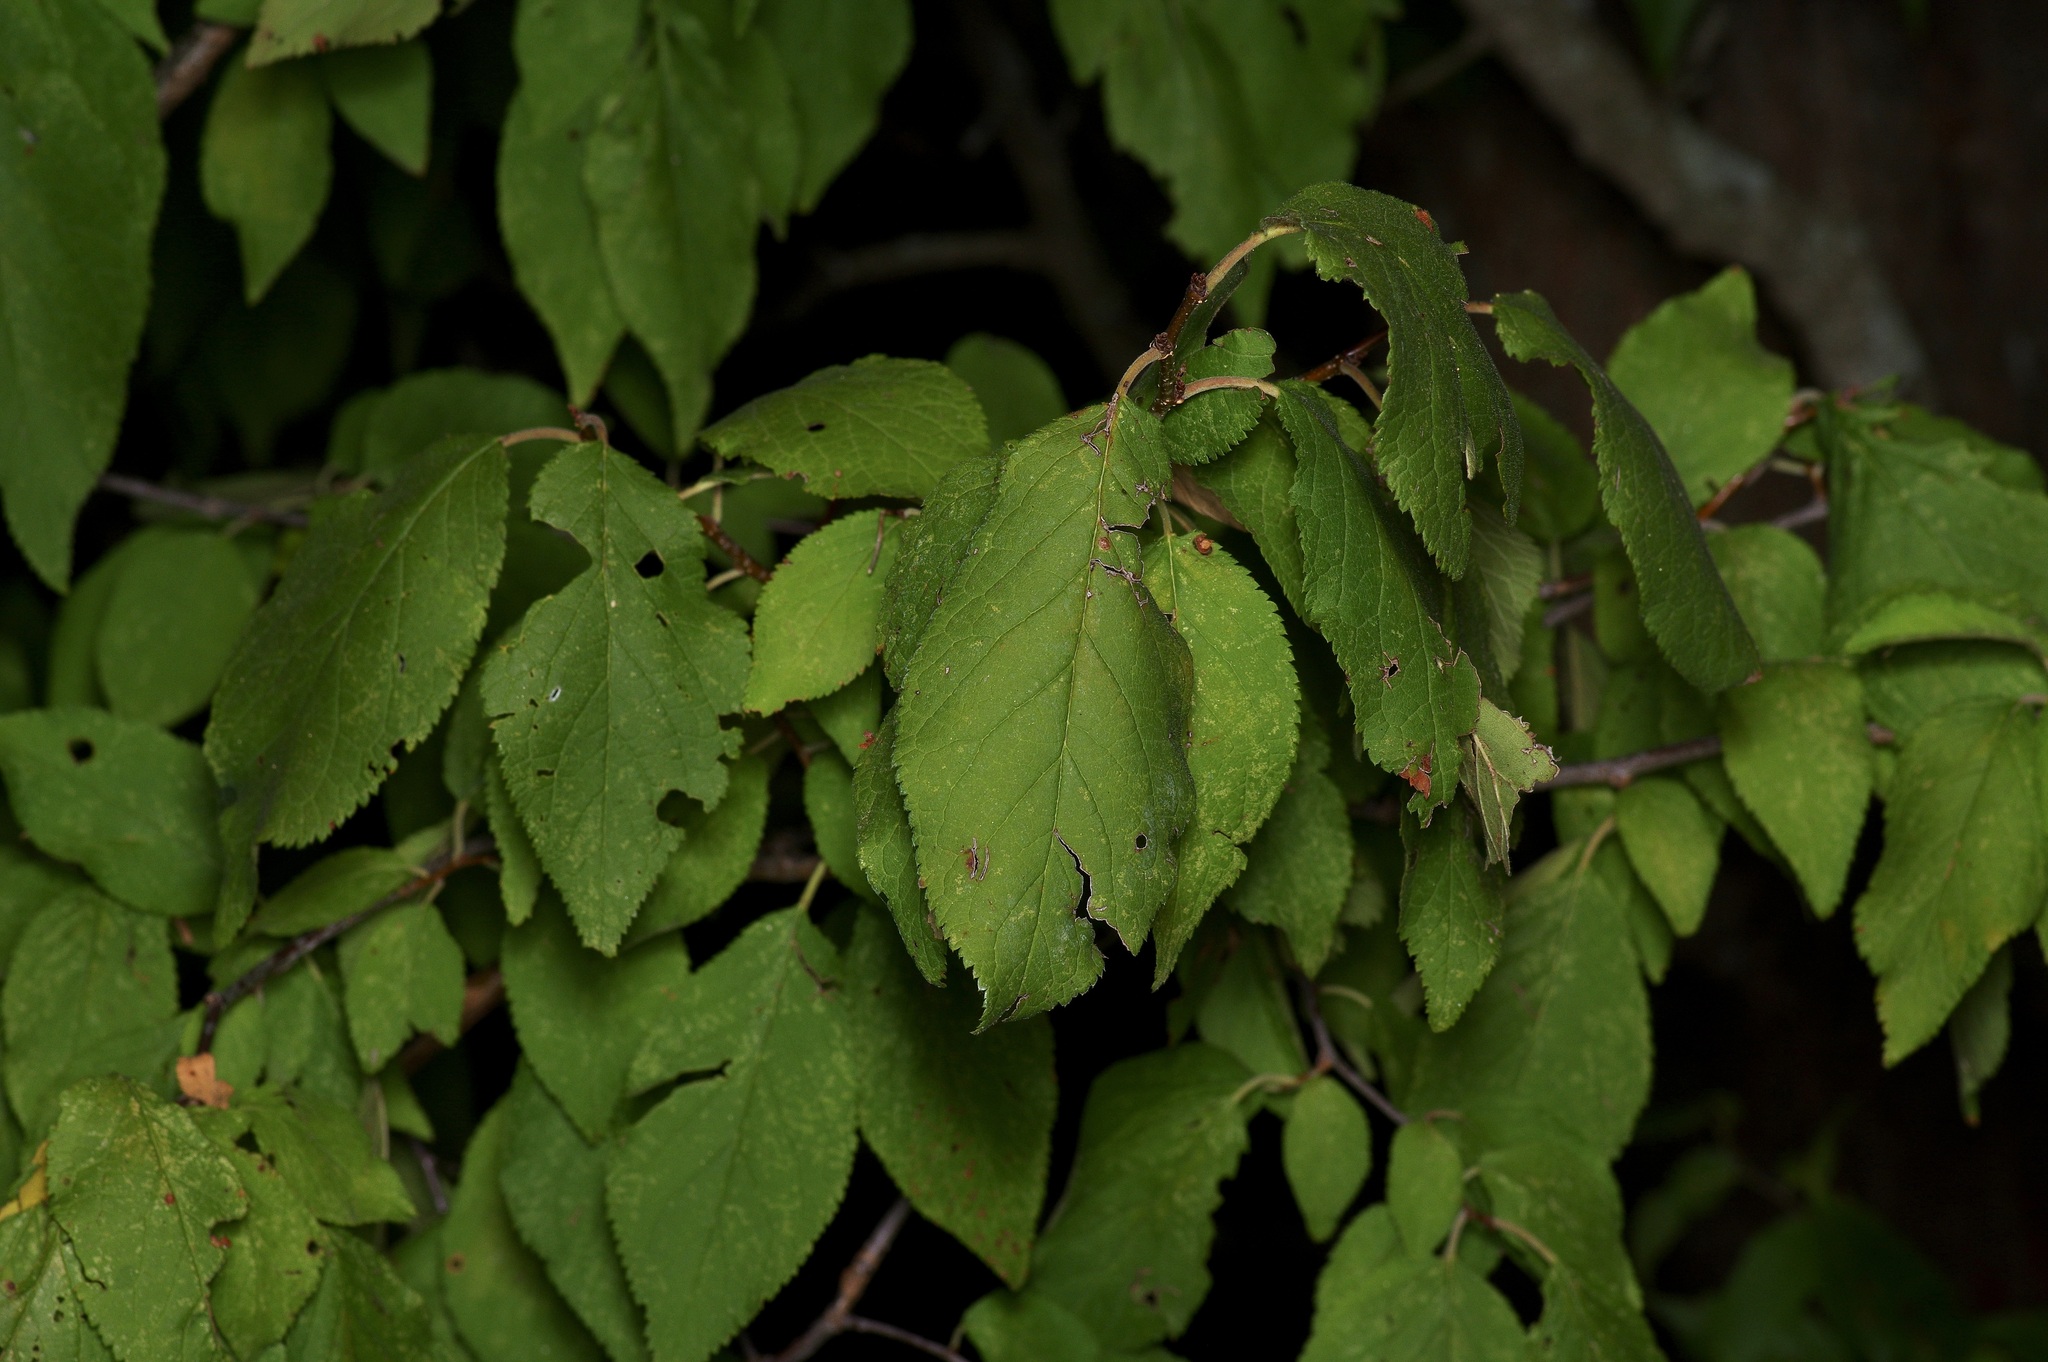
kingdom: Plantae
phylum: Tracheophyta
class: Magnoliopsida
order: Rosales
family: Rosaceae
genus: Prunus
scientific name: Prunus mexicana
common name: Mexican plum
